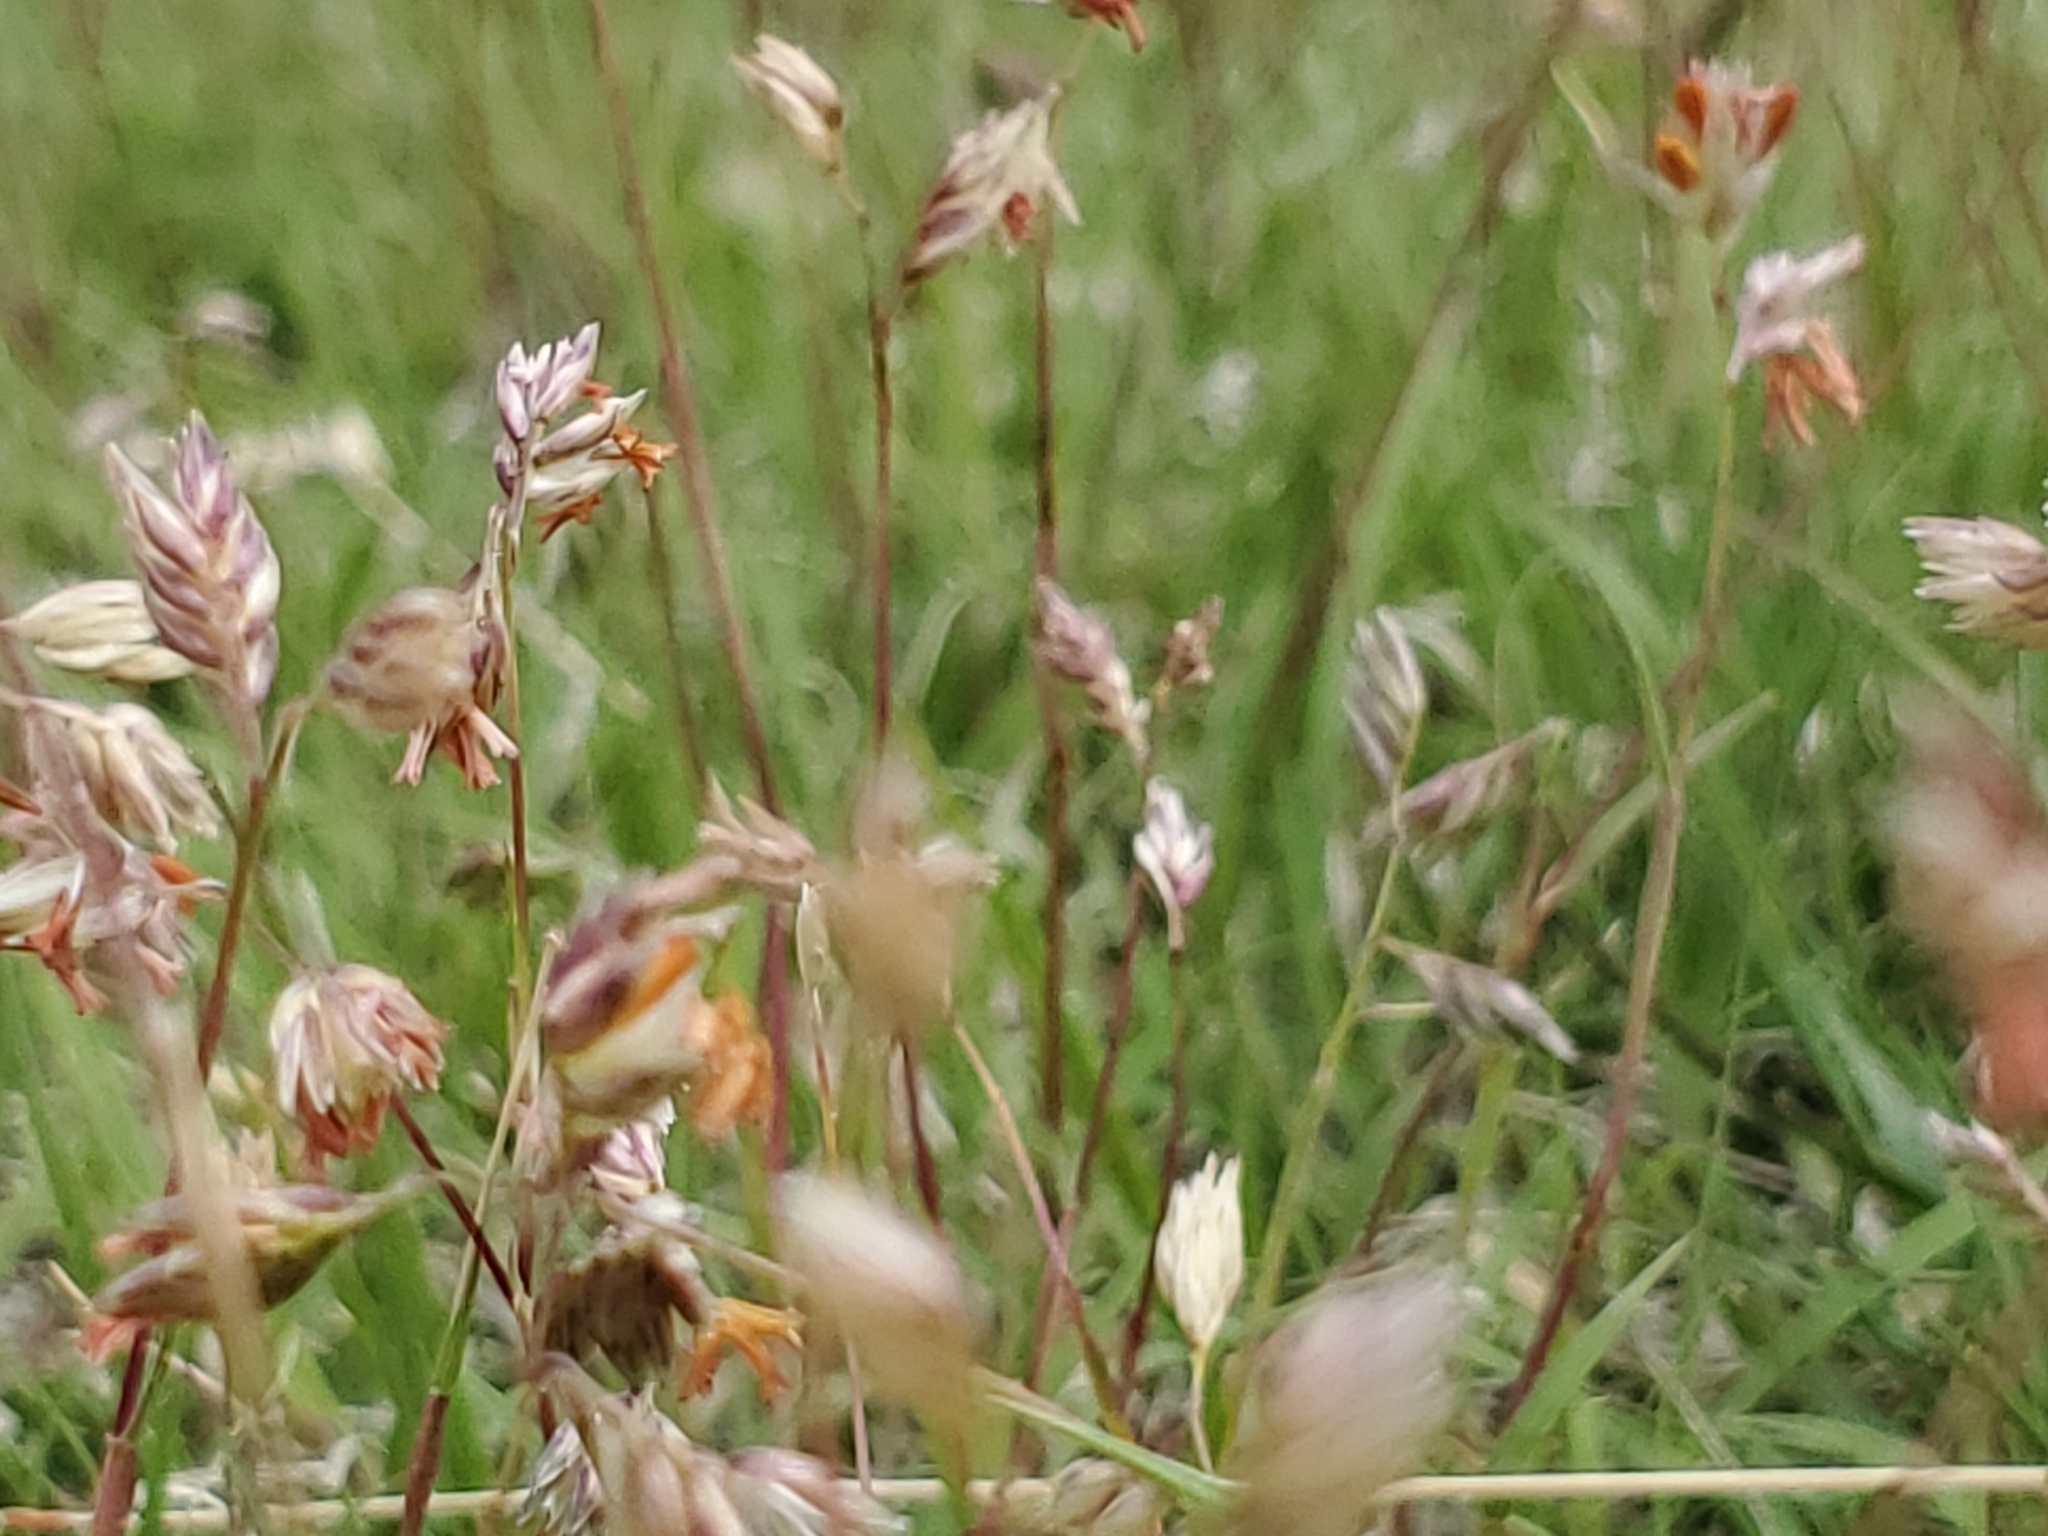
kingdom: Plantae
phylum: Tracheophyta
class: Liliopsida
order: Poales
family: Poaceae
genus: Bouteloua
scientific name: Bouteloua dactyloides
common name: Buffalo grass
